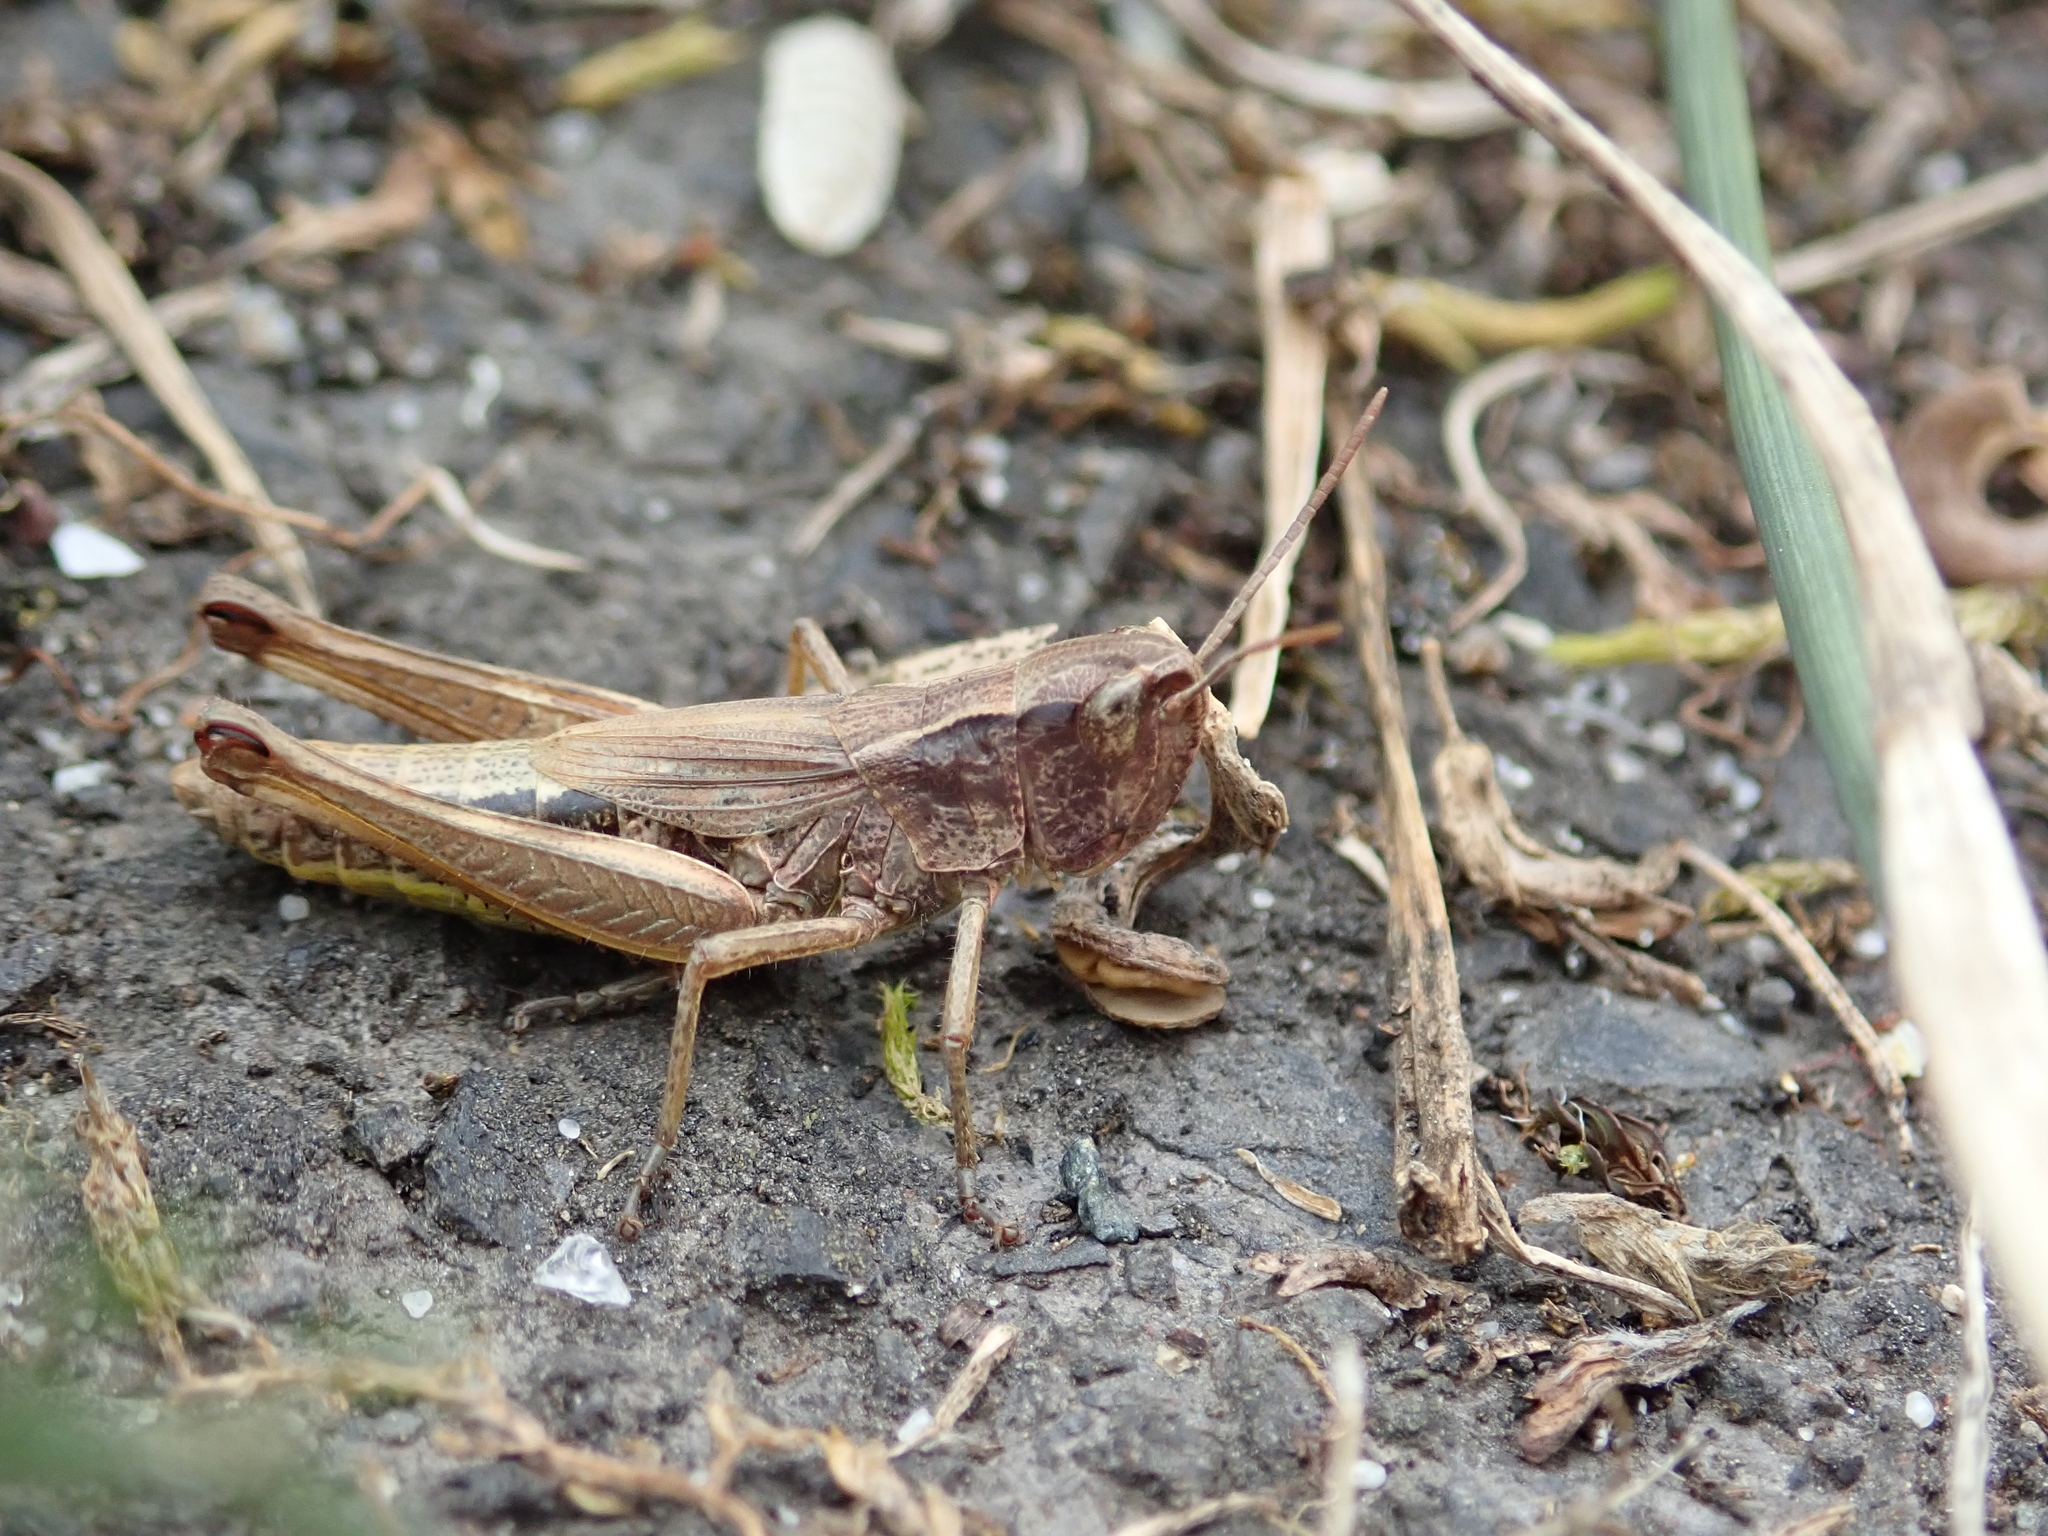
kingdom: Animalia
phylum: Arthropoda
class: Insecta
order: Orthoptera
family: Acrididae
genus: Pseudochorthippus
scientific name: Pseudochorthippus parallelus
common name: Meadow grasshopper
